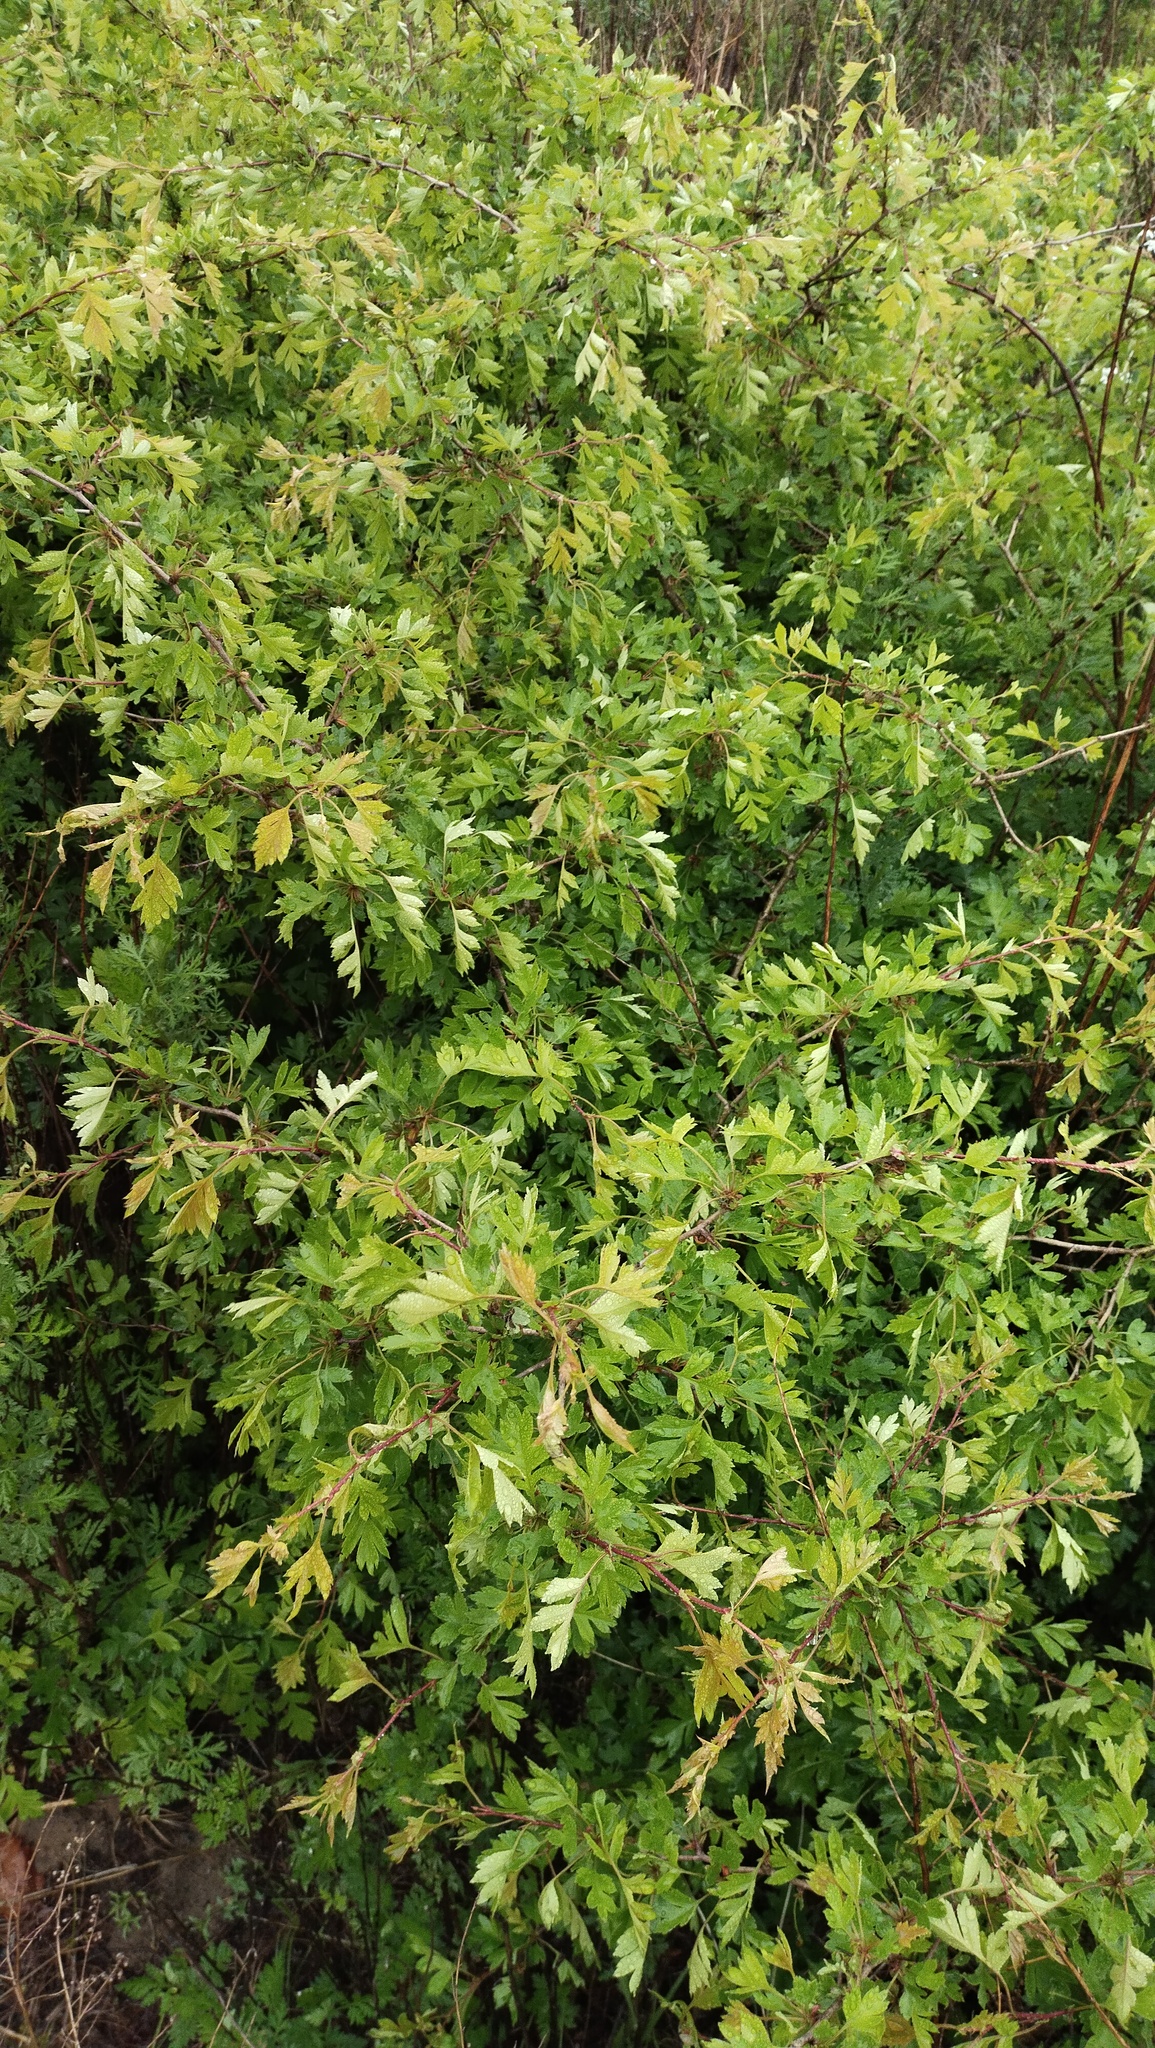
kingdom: Plantae
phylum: Tracheophyta
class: Magnoliopsida
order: Rosales
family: Rosaceae
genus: Crataegus
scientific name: Crataegus pinnatifida
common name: Chinese haw
